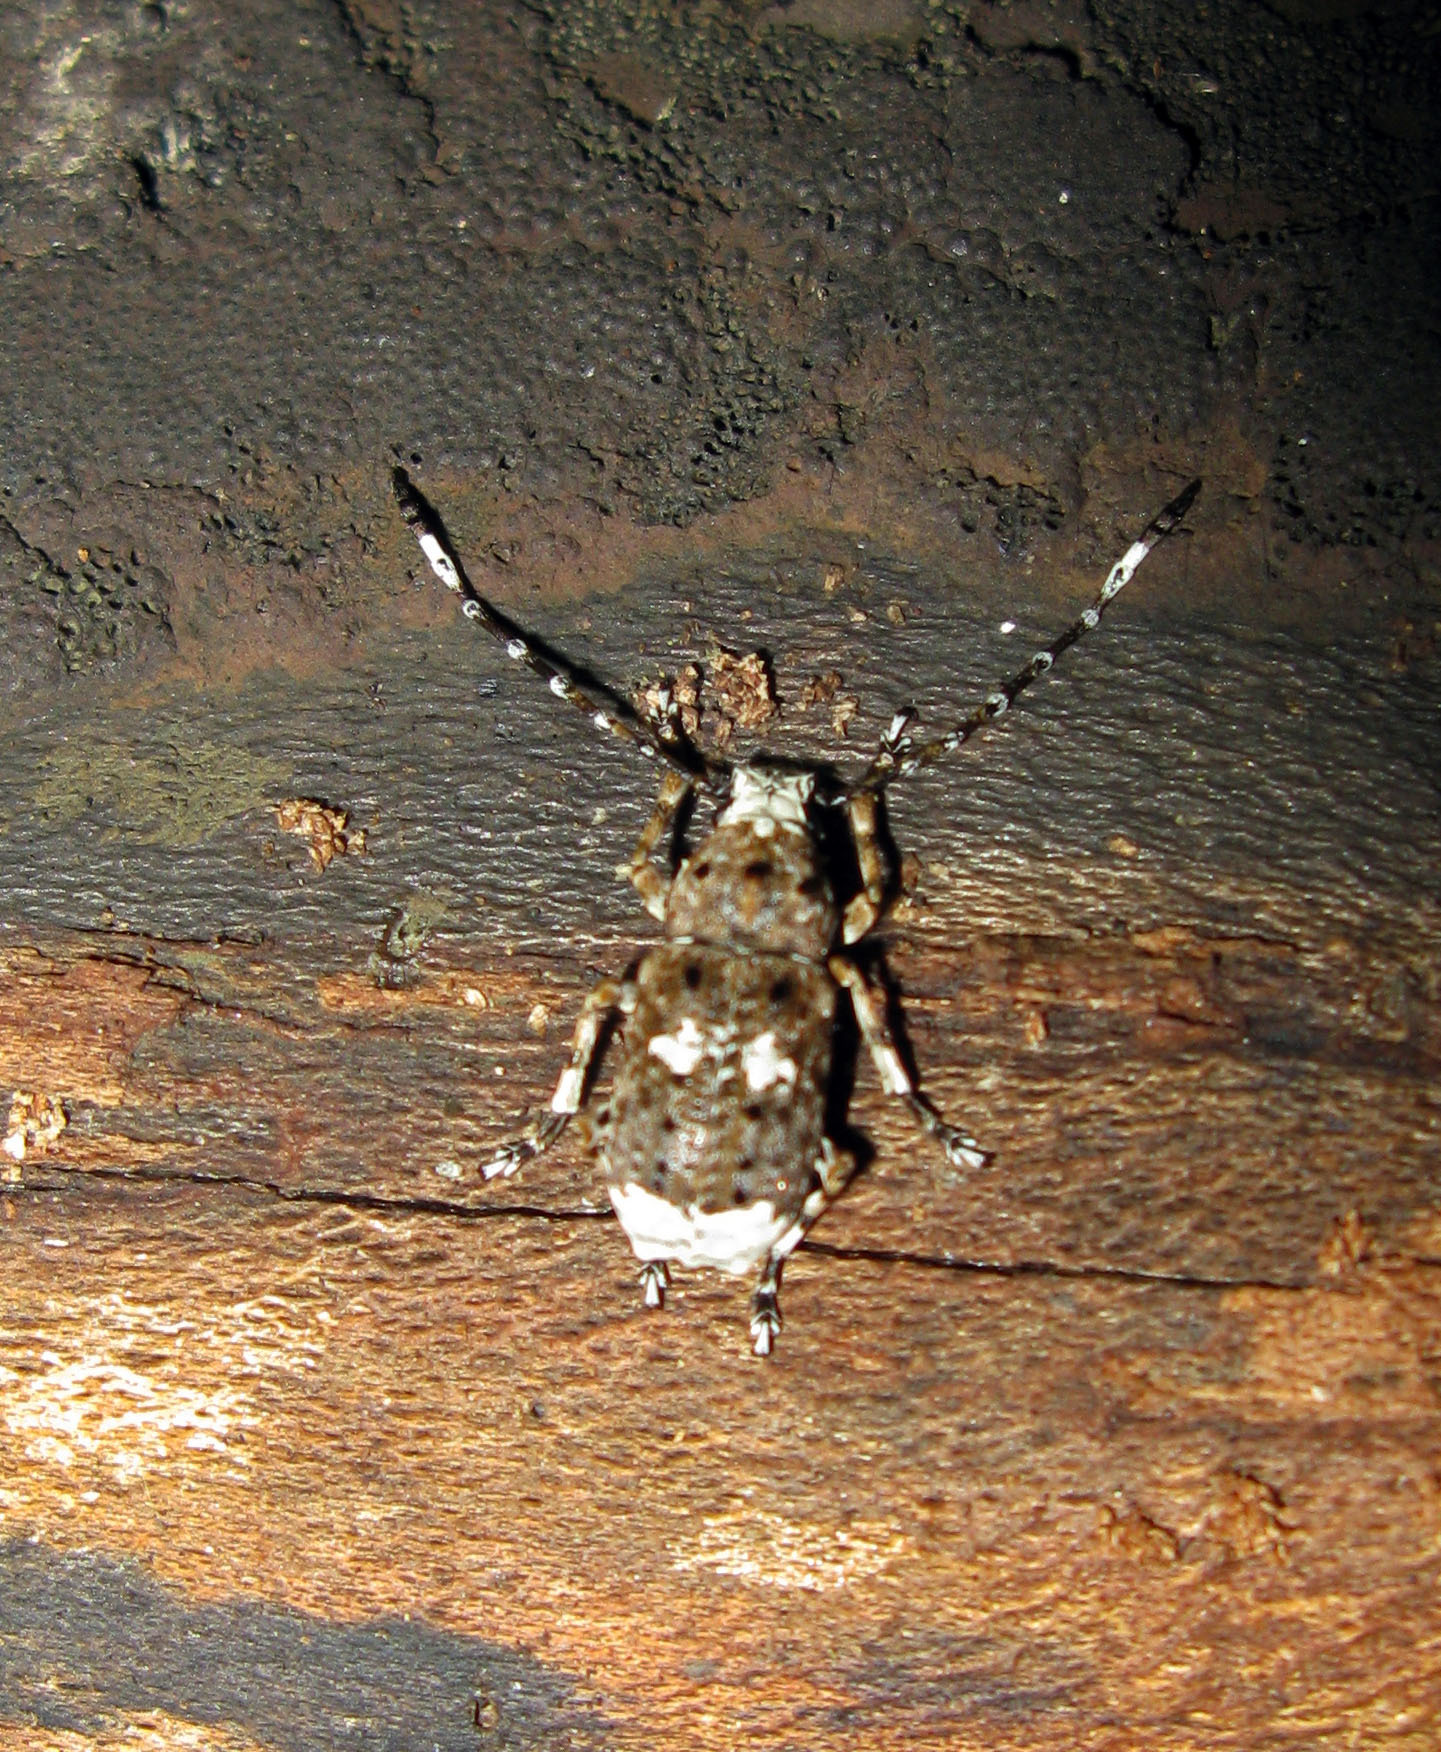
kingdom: Animalia
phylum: Arthropoda
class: Insecta
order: Coleoptera
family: Anthribidae
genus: Platystomos
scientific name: Platystomos albinus
